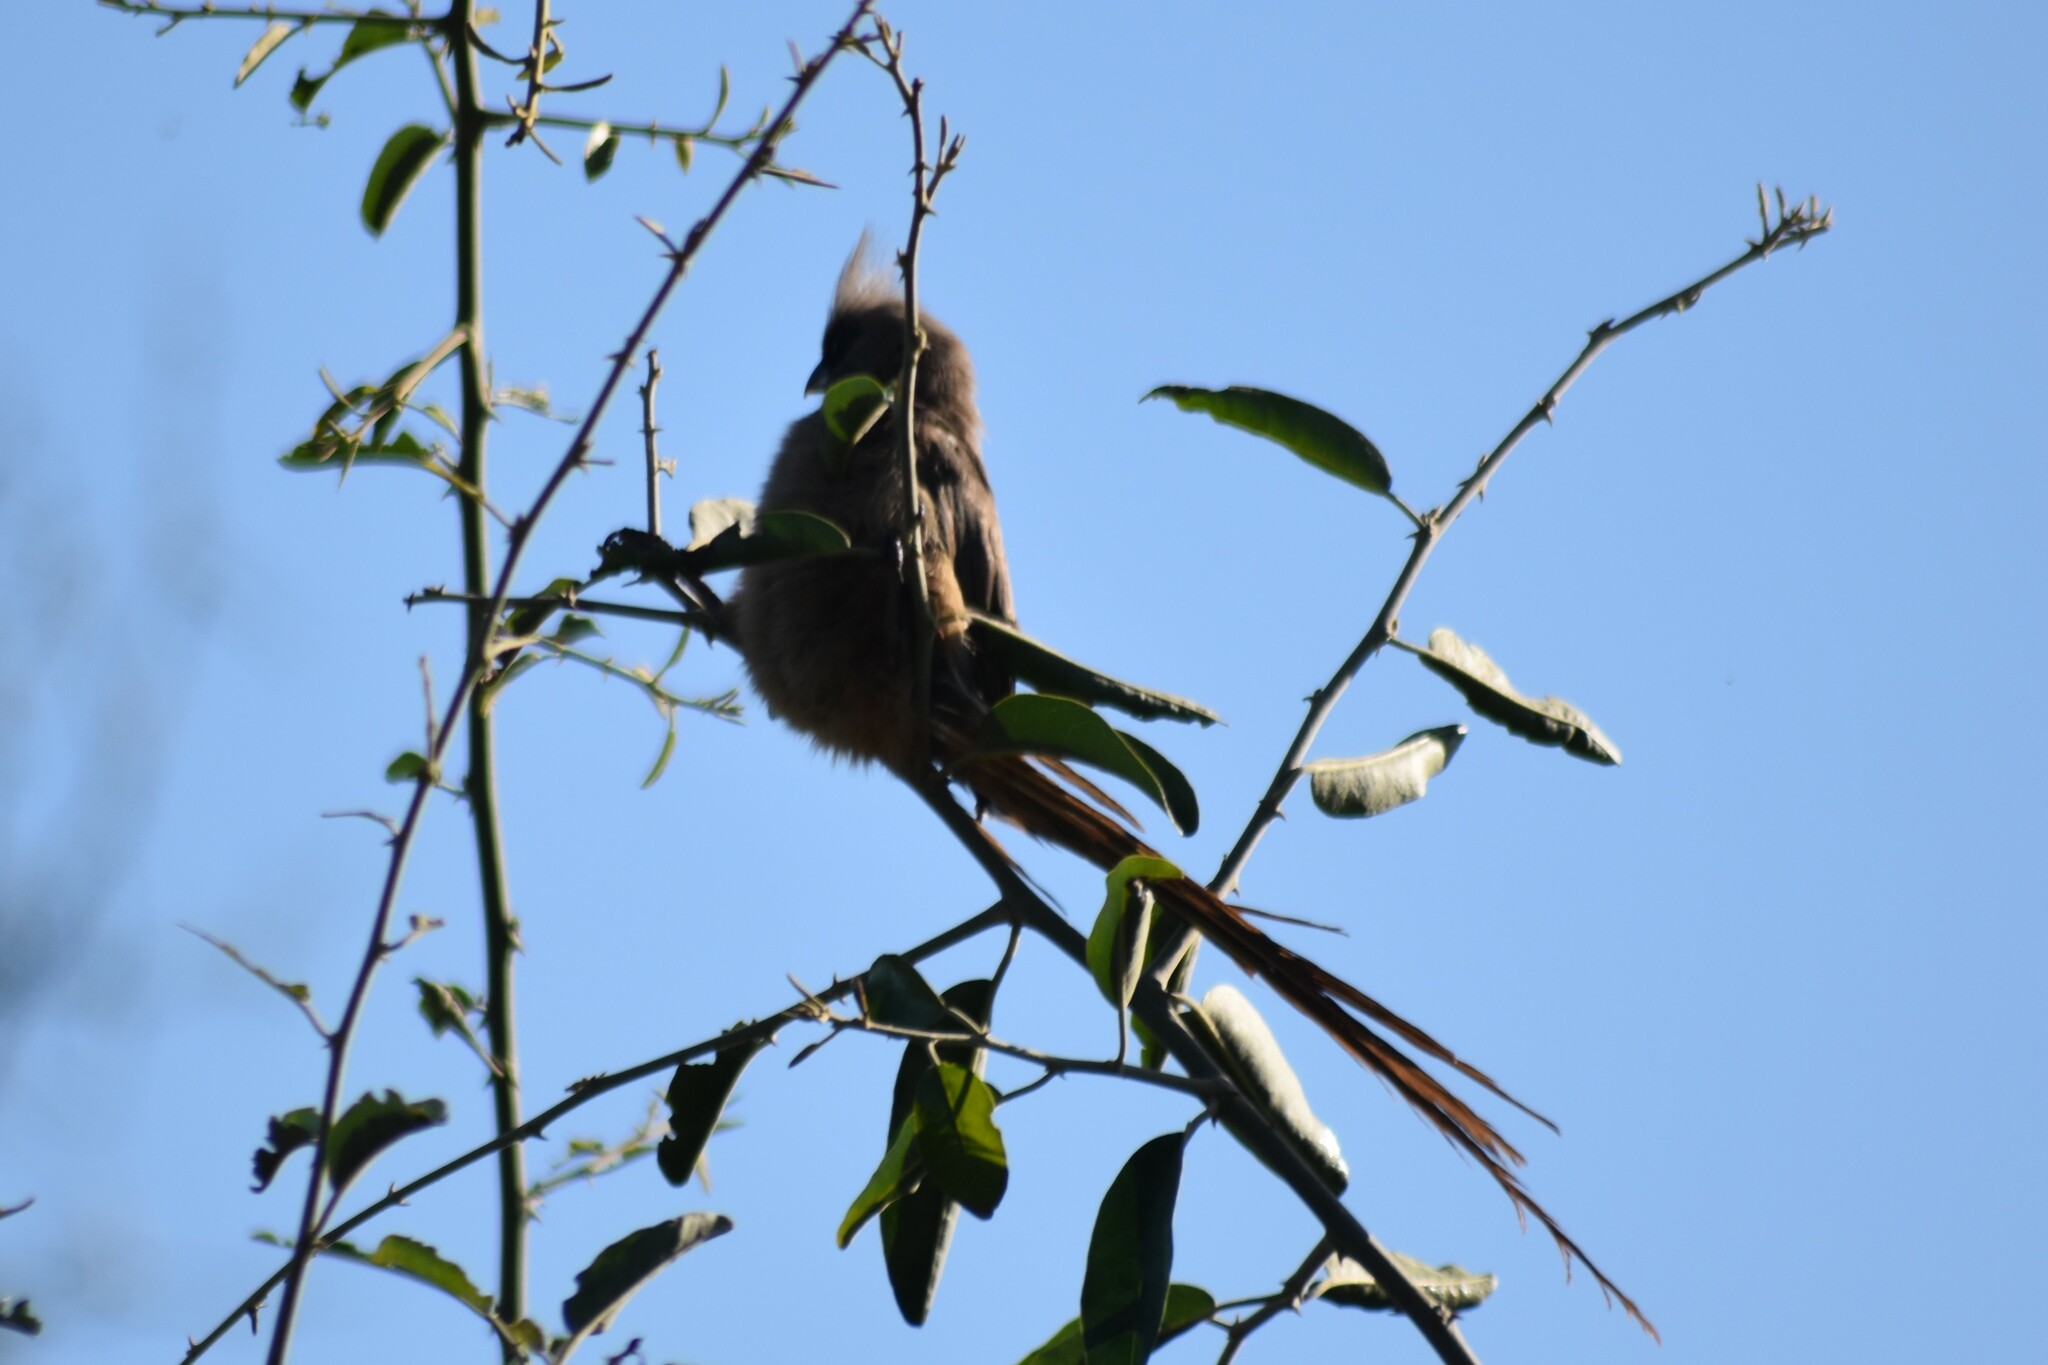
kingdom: Animalia
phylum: Chordata
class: Aves
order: Coliiformes
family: Coliidae
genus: Colius
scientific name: Colius striatus
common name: Speckled mousebird
